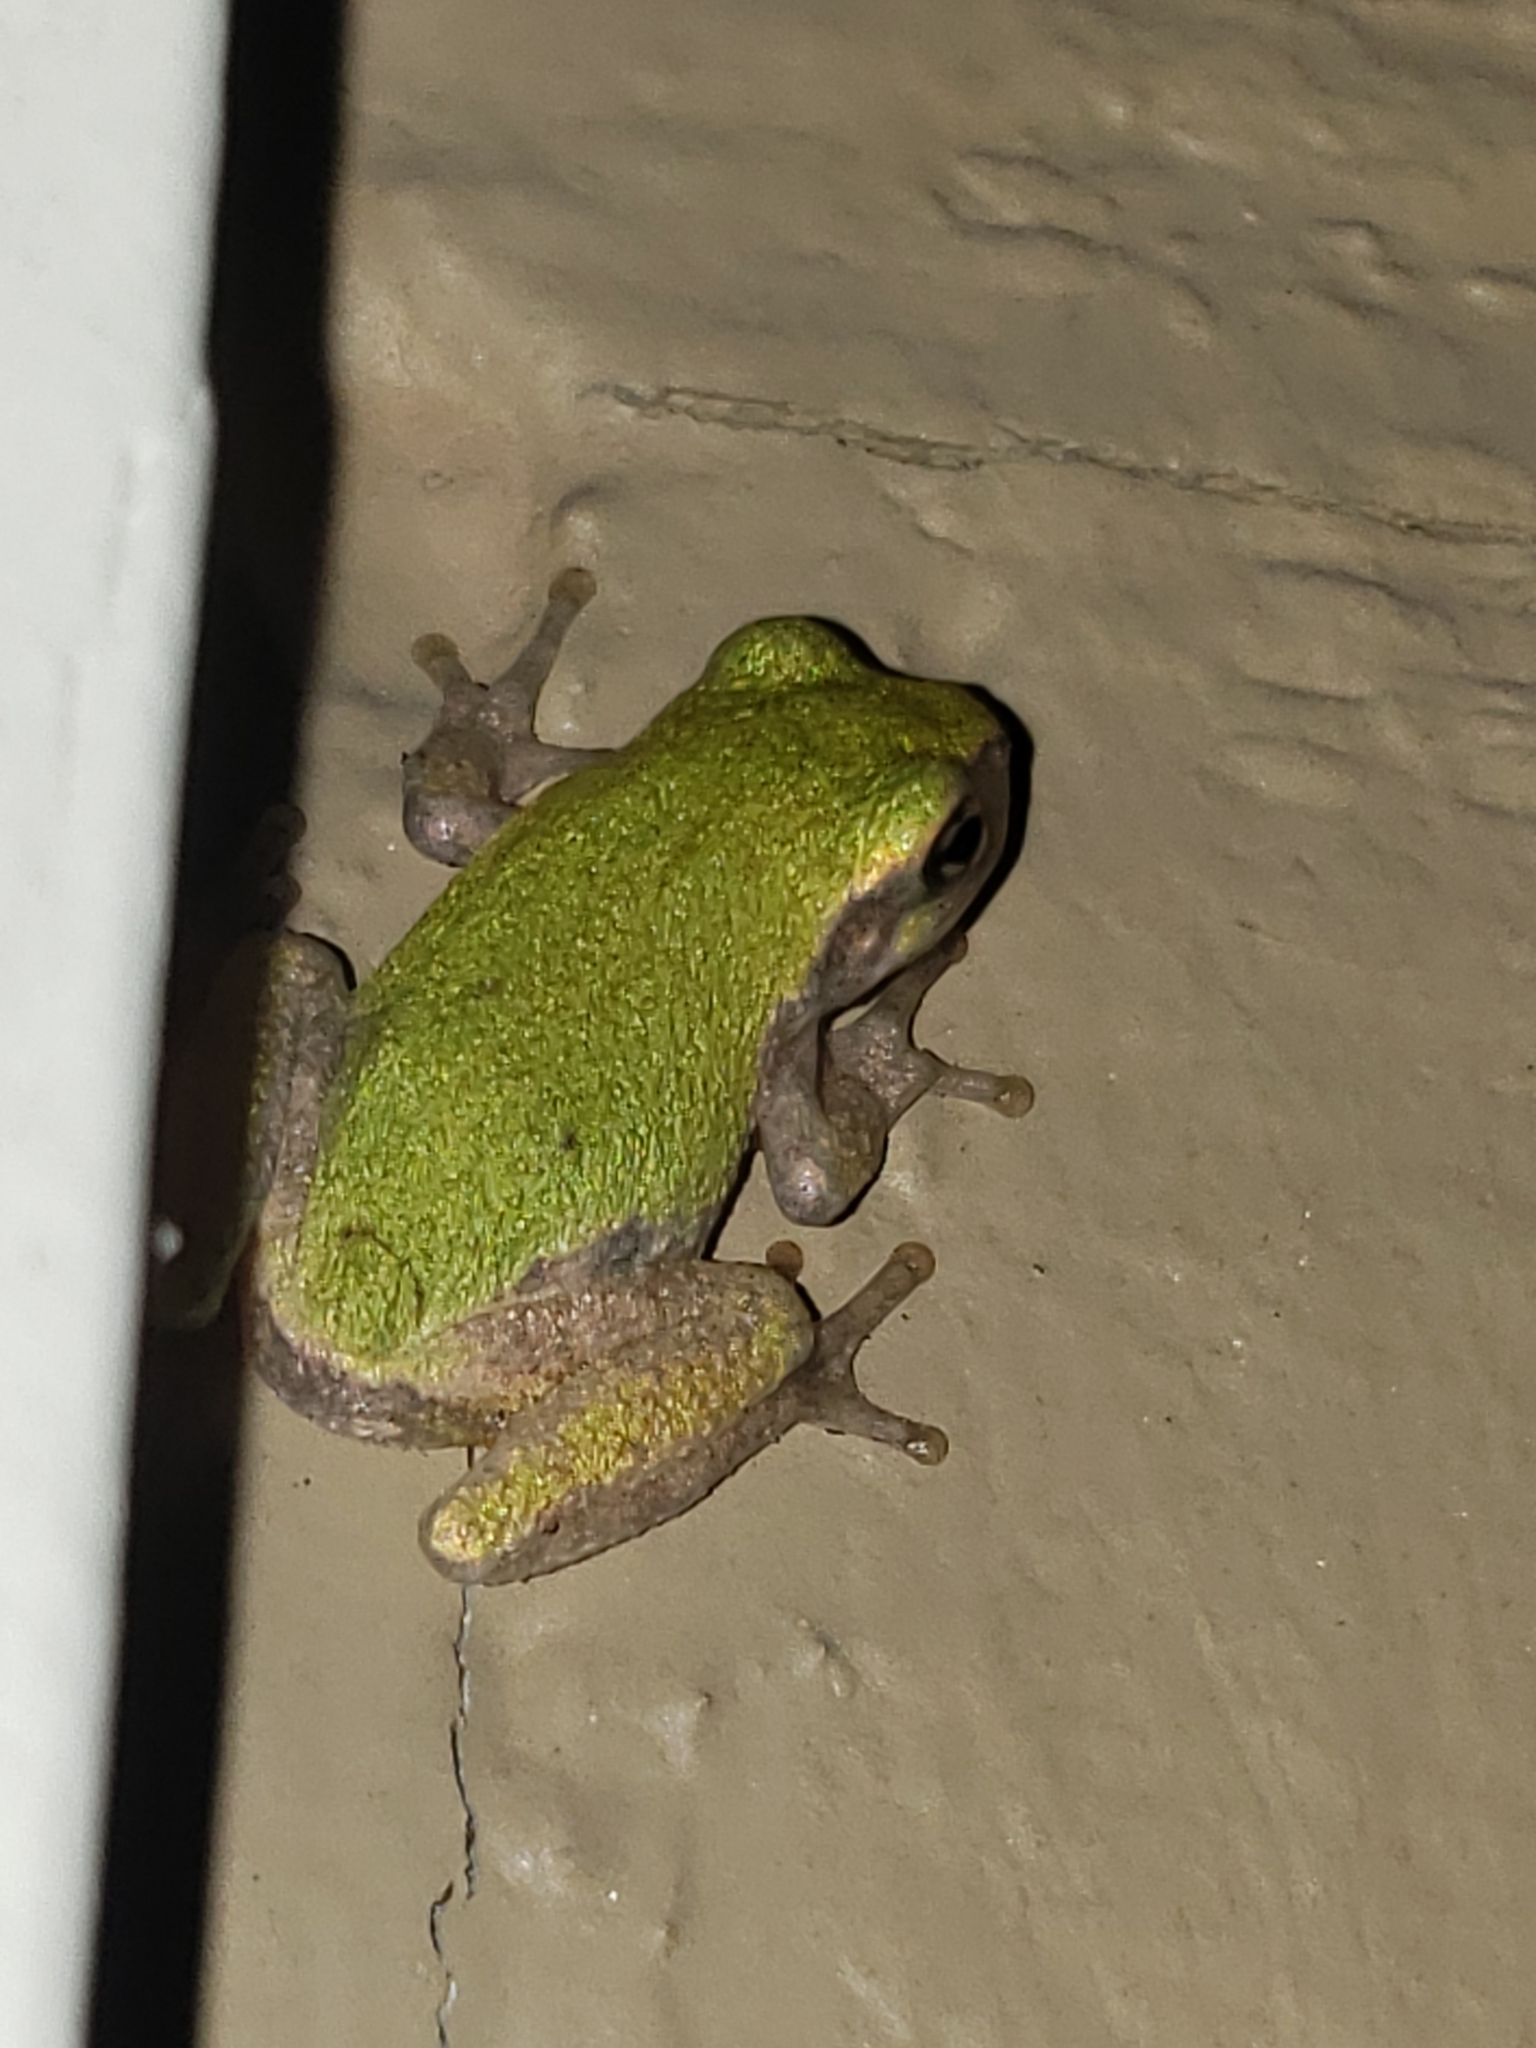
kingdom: Animalia
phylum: Chordata
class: Amphibia
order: Anura
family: Hylidae
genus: Hyla
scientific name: Hyla
